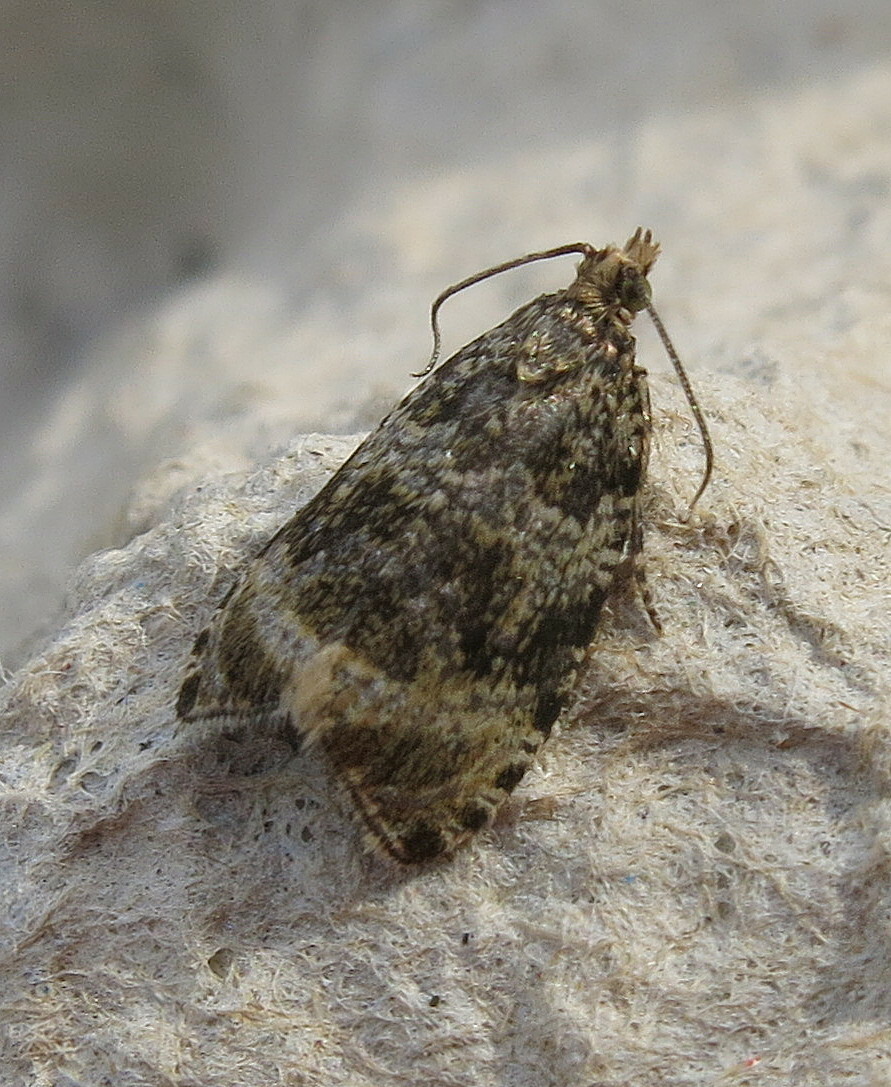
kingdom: Animalia
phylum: Arthropoda
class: Insecta
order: Lepidoptera
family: Tortricidae
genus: Syricoris
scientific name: Syricoris lacunana
